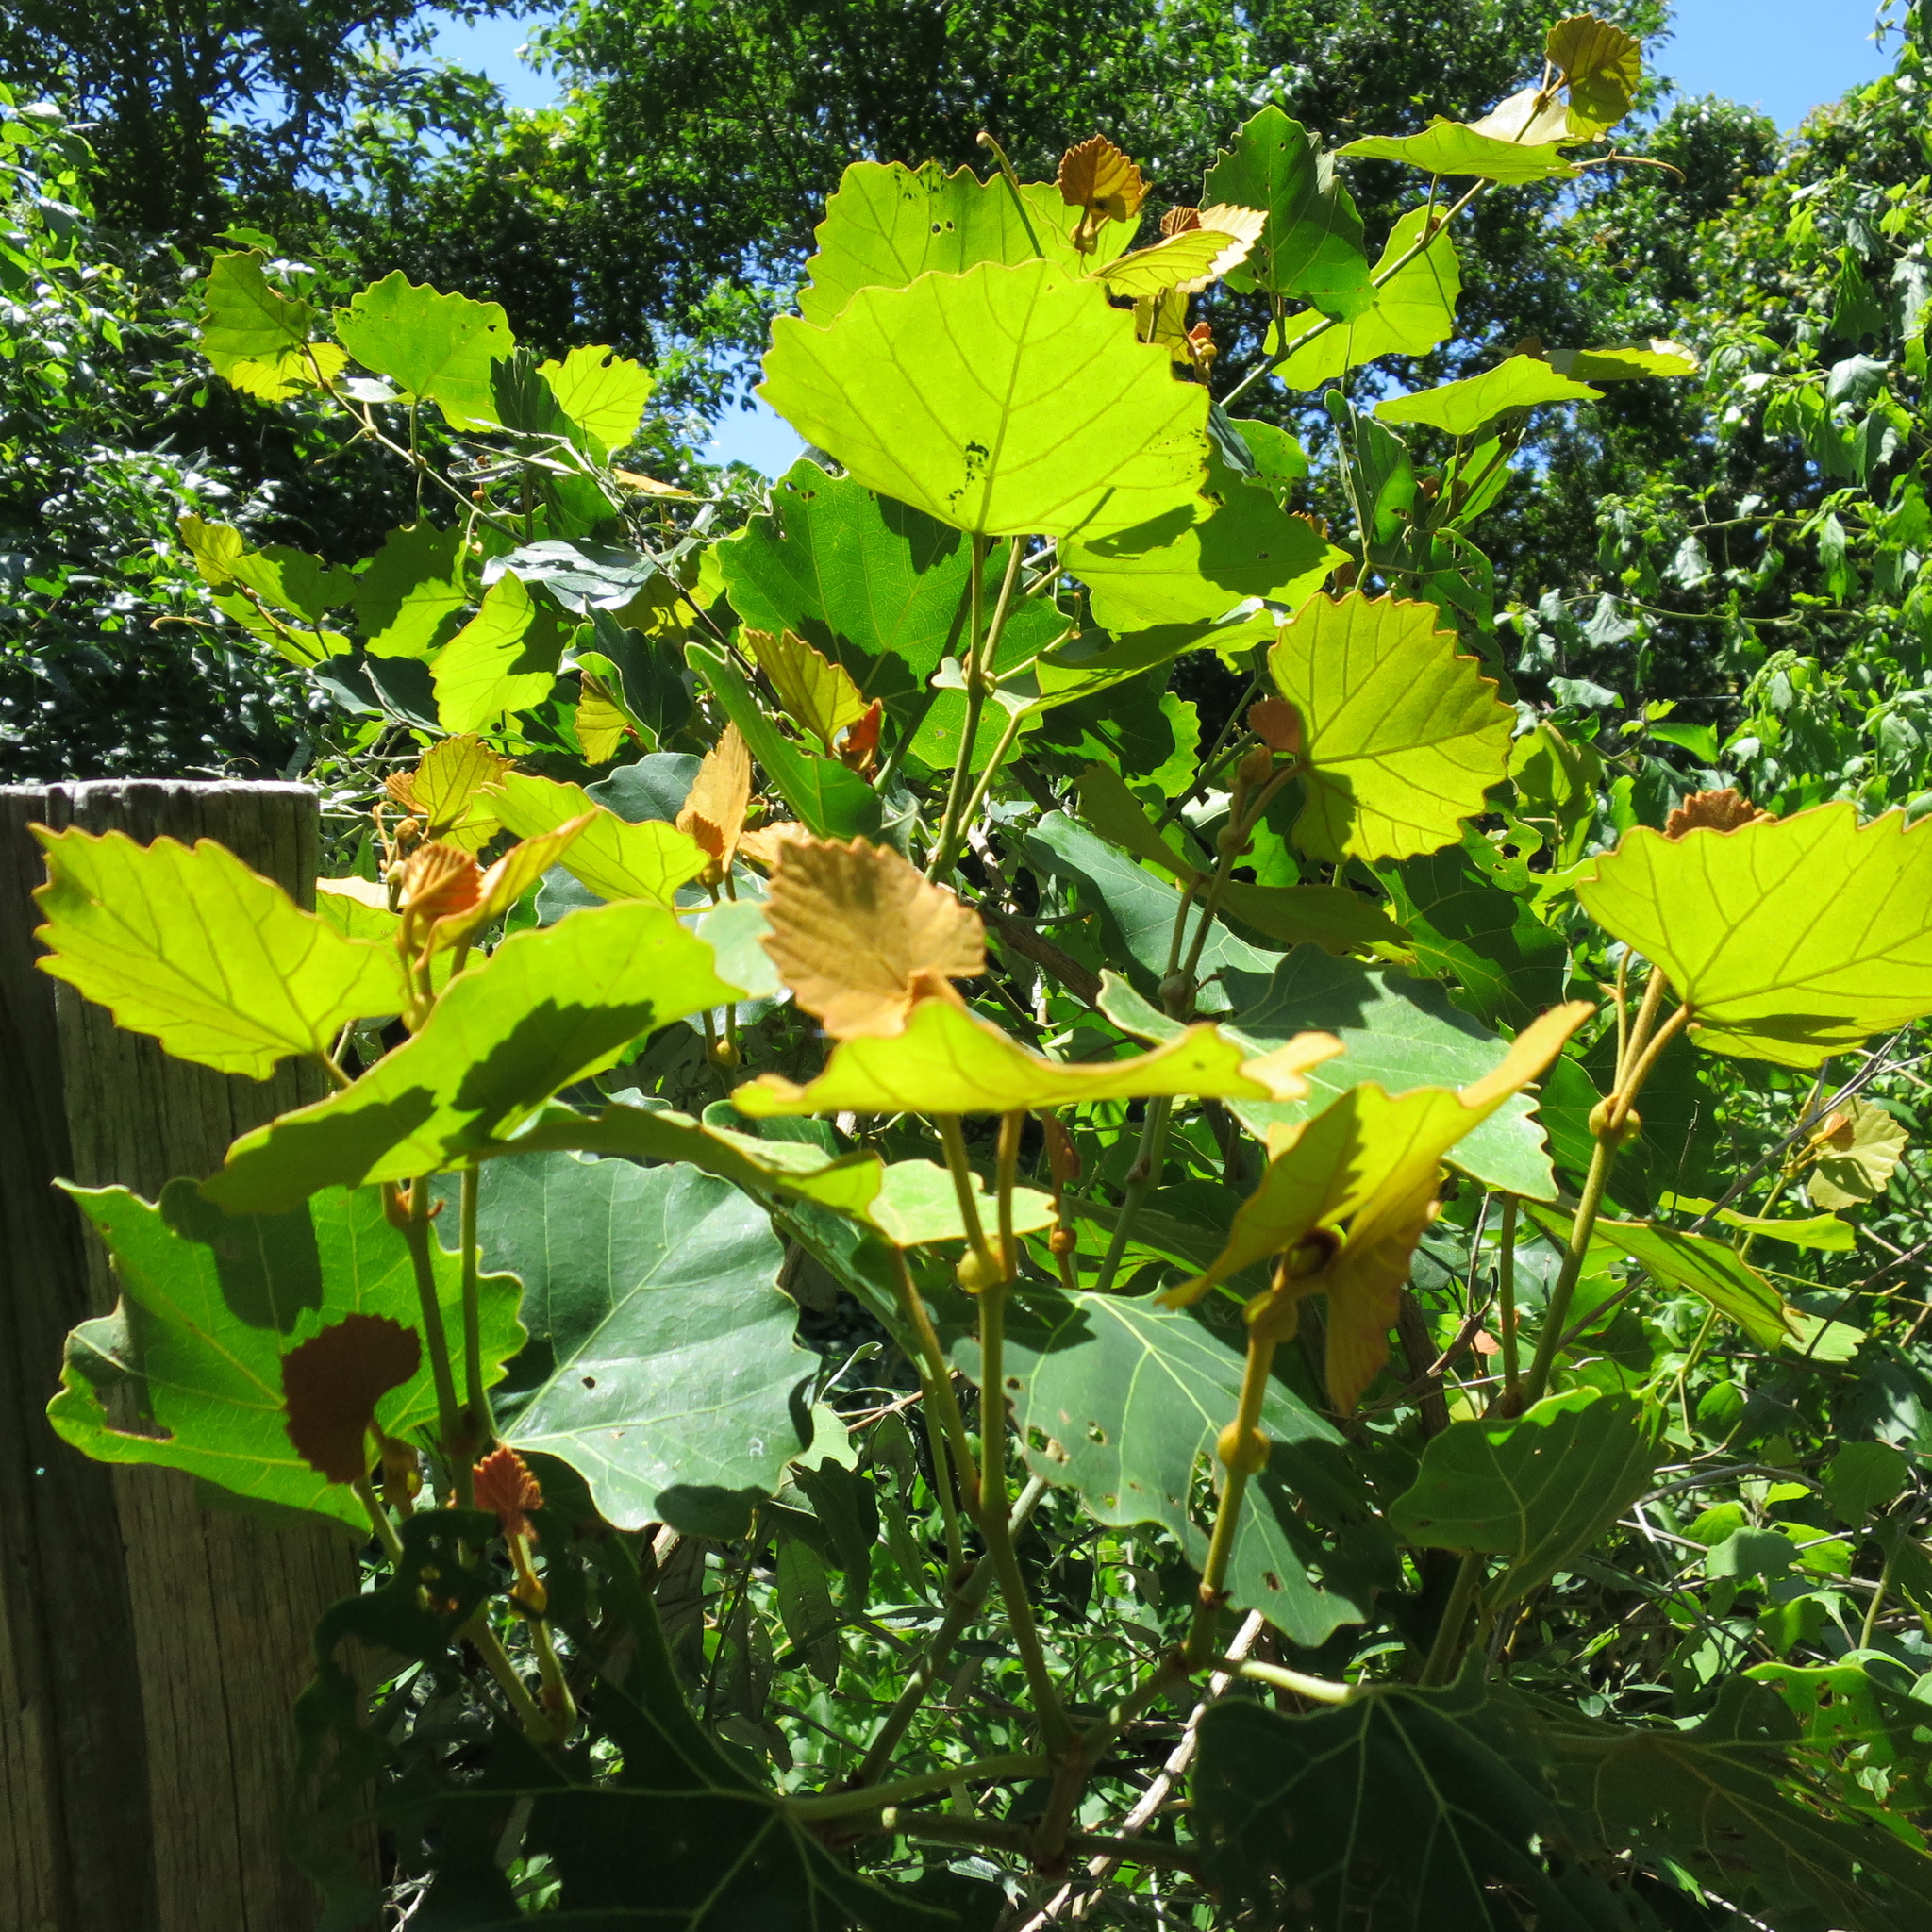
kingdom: Plantae
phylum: Tracheophyta
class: Magnoliopsida
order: Vitales
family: Vitaceae
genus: Rhoicissus
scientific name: Rhoicissus tomentosa
